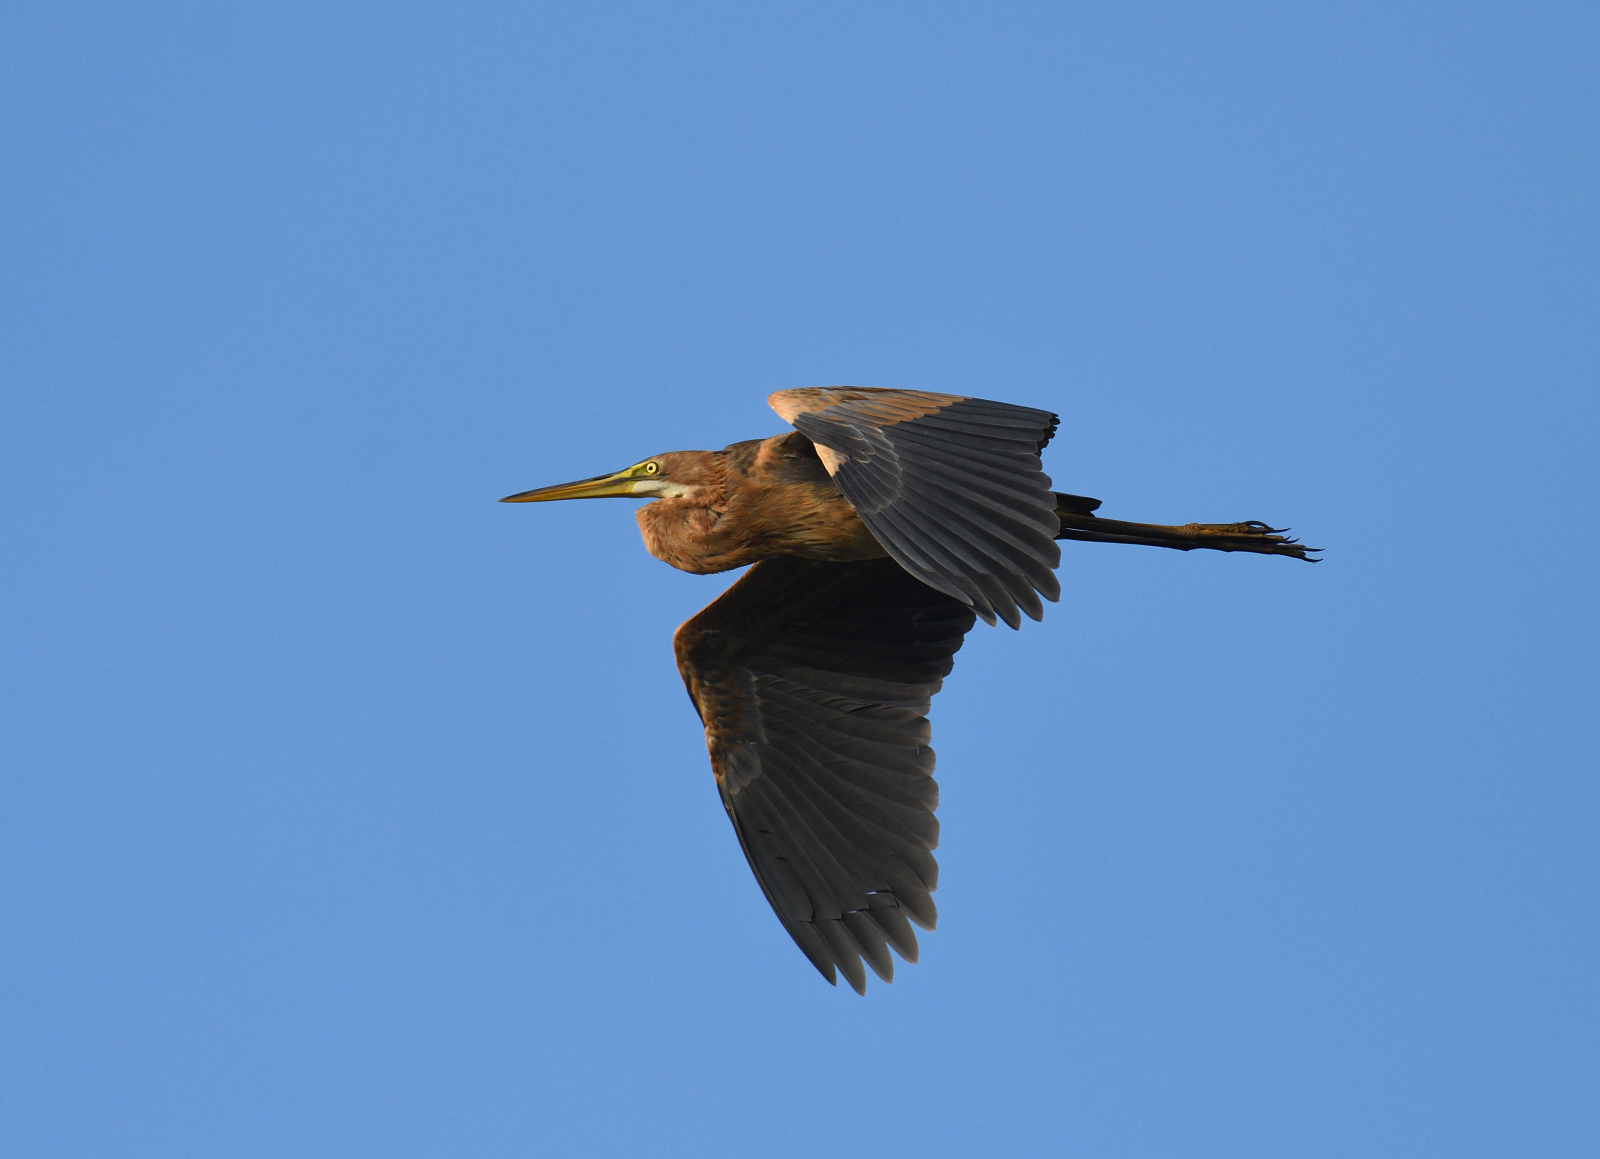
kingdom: Animalia
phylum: Chordata
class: Aves
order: Pelecaniformes
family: Ardeidae
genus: Ardea
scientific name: Ardea purpurea
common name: Purple heron
